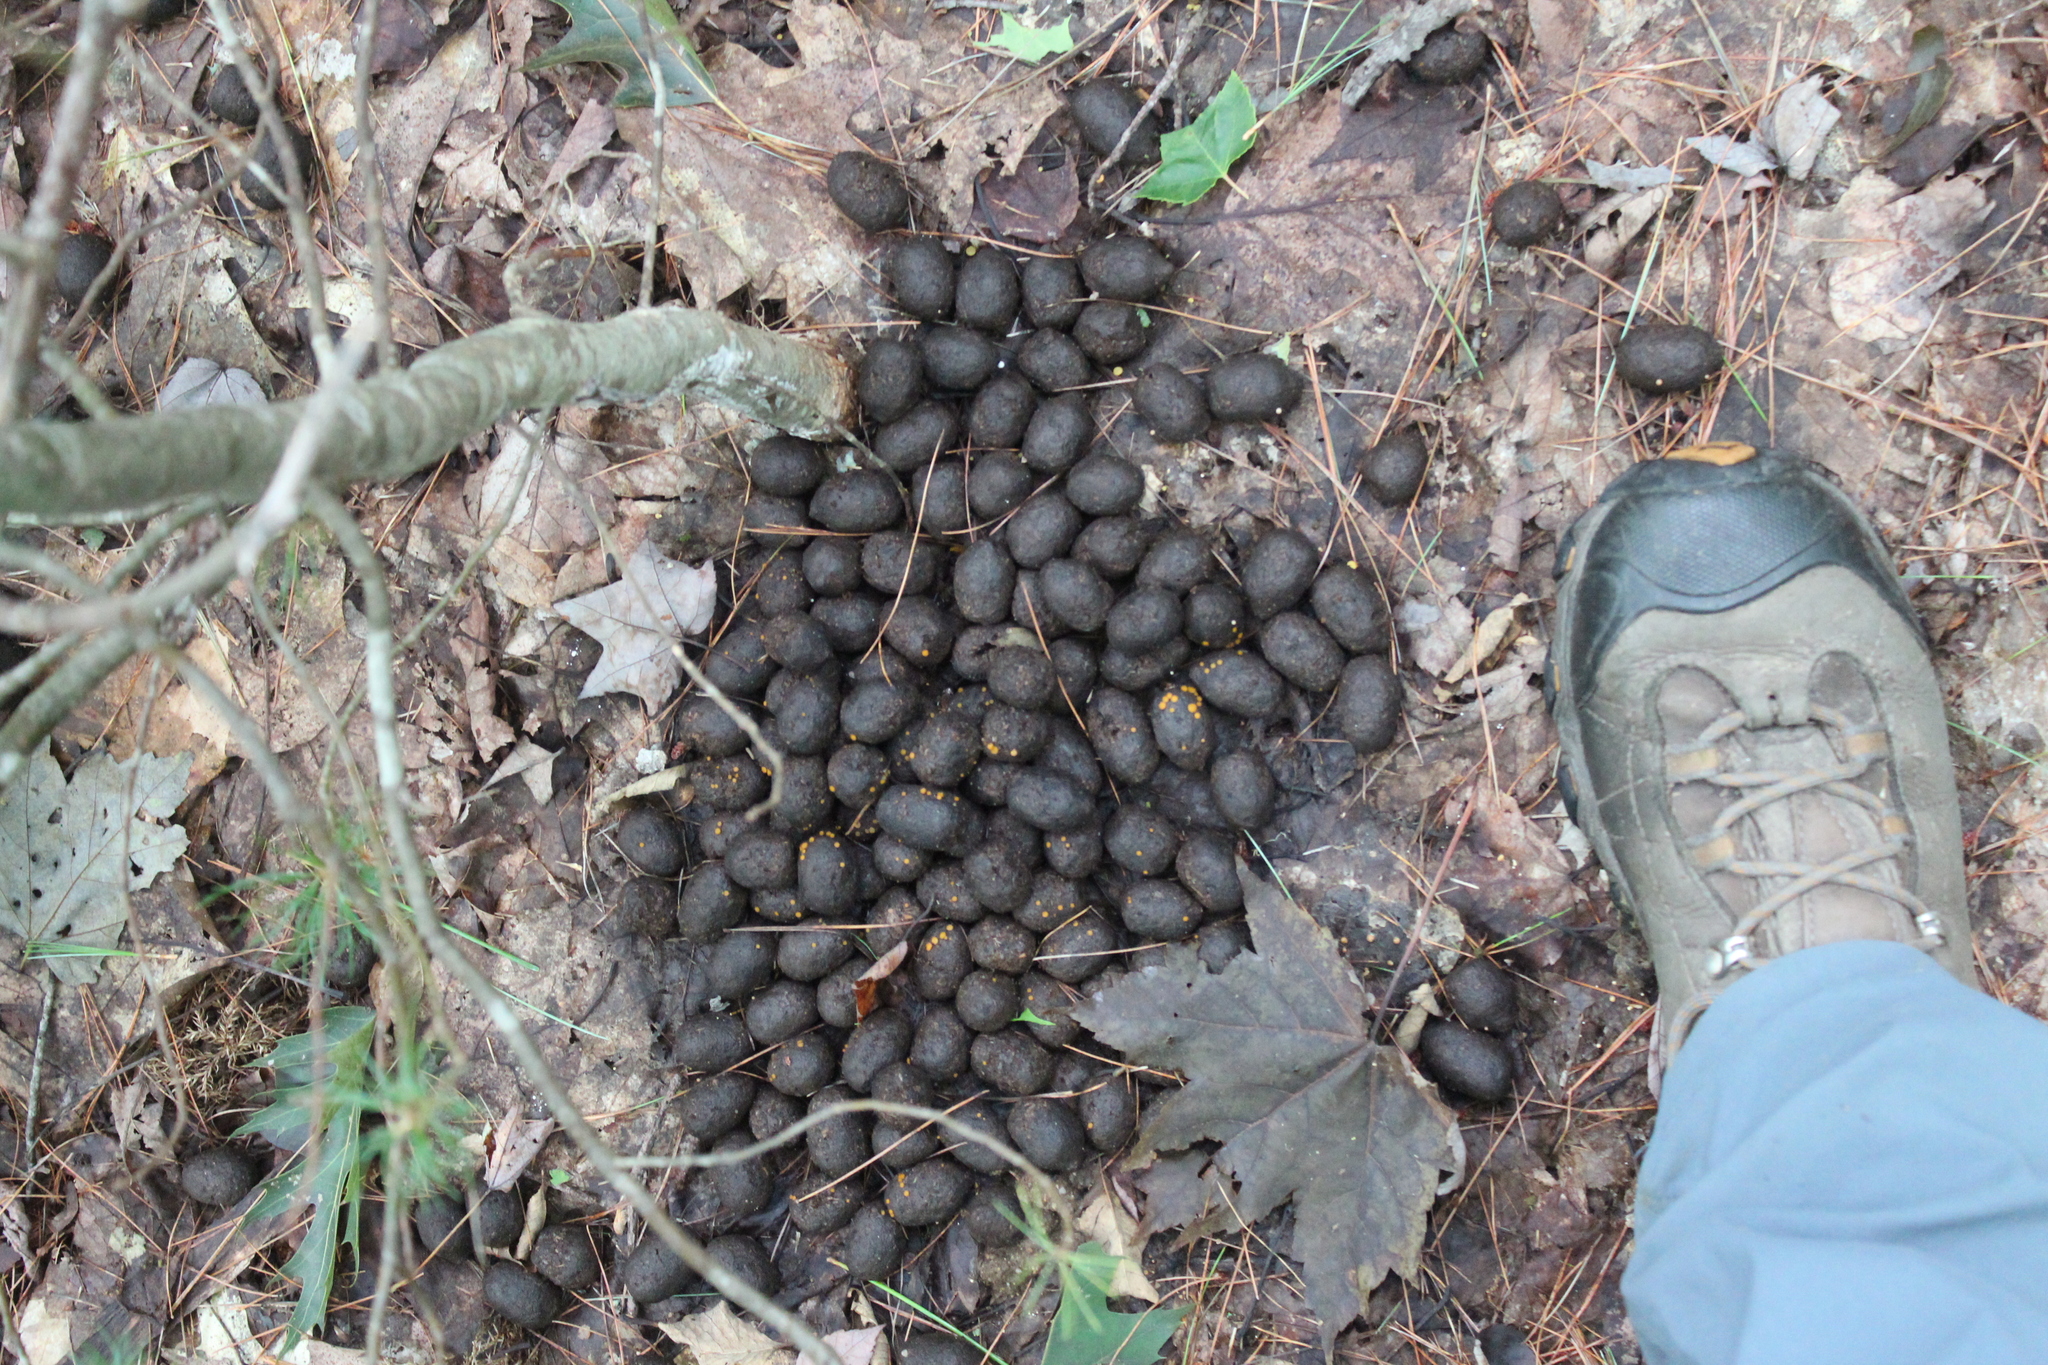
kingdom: Animalia
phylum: Chordata
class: Mammalia
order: Artiodactyla
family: Cervidae
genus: Alces
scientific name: Alces alces
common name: Moose
